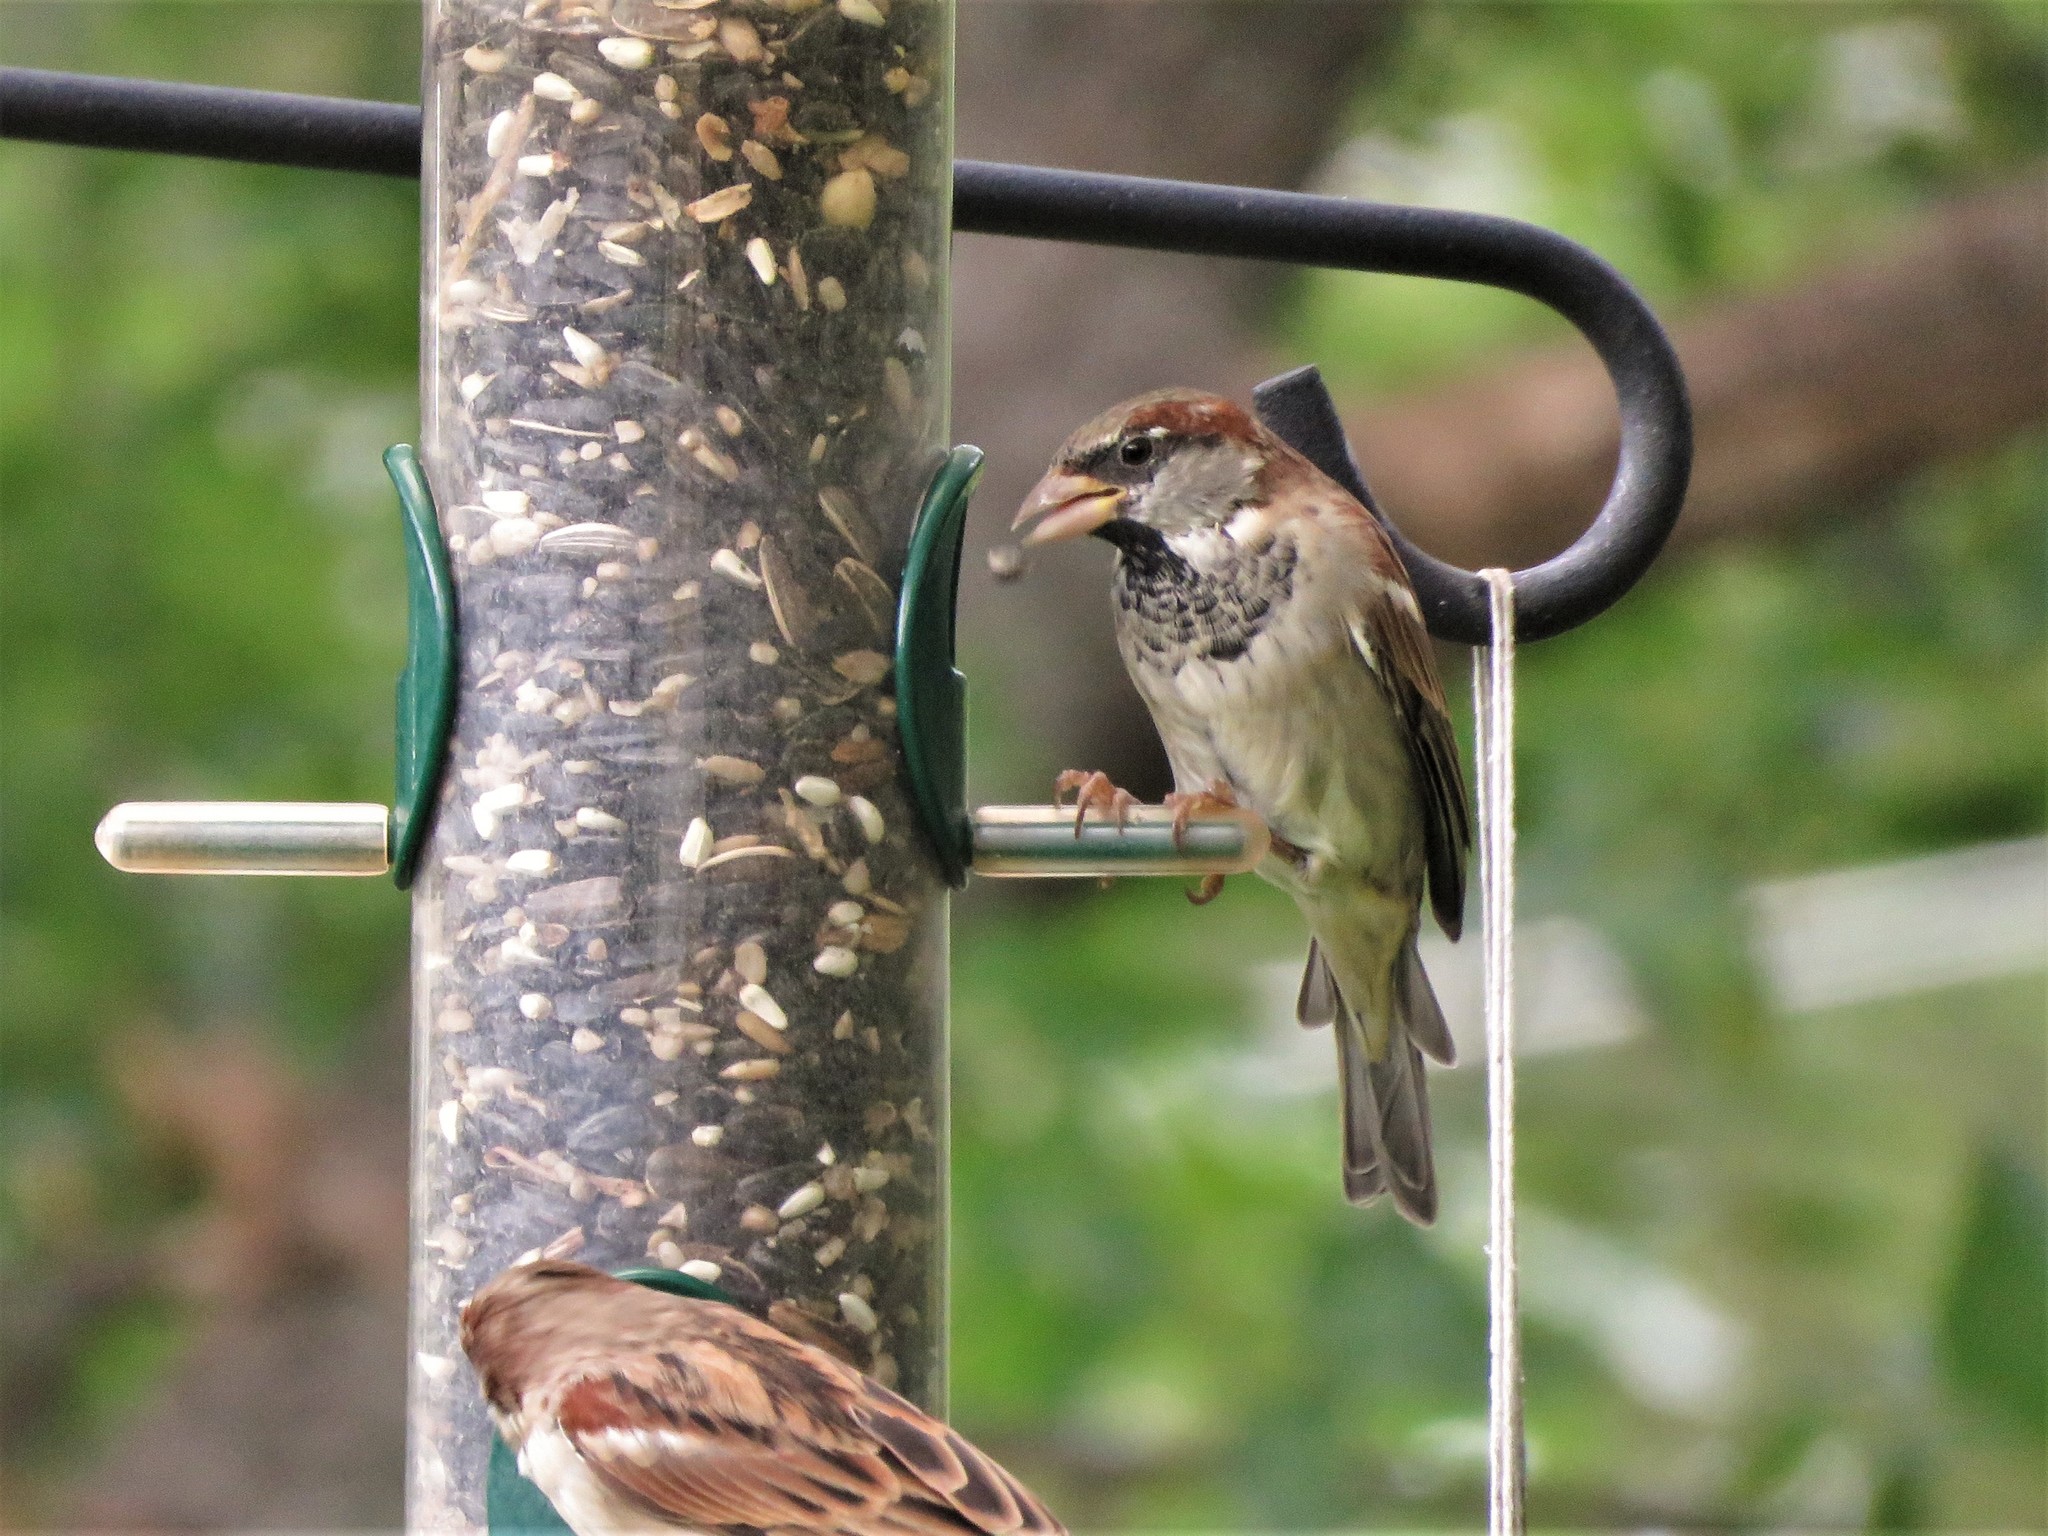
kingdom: Animalia
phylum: Chordata
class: Aves
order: Passeriformes
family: Passeridae
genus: Passer
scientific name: Passer domesticus
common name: House sparrow
